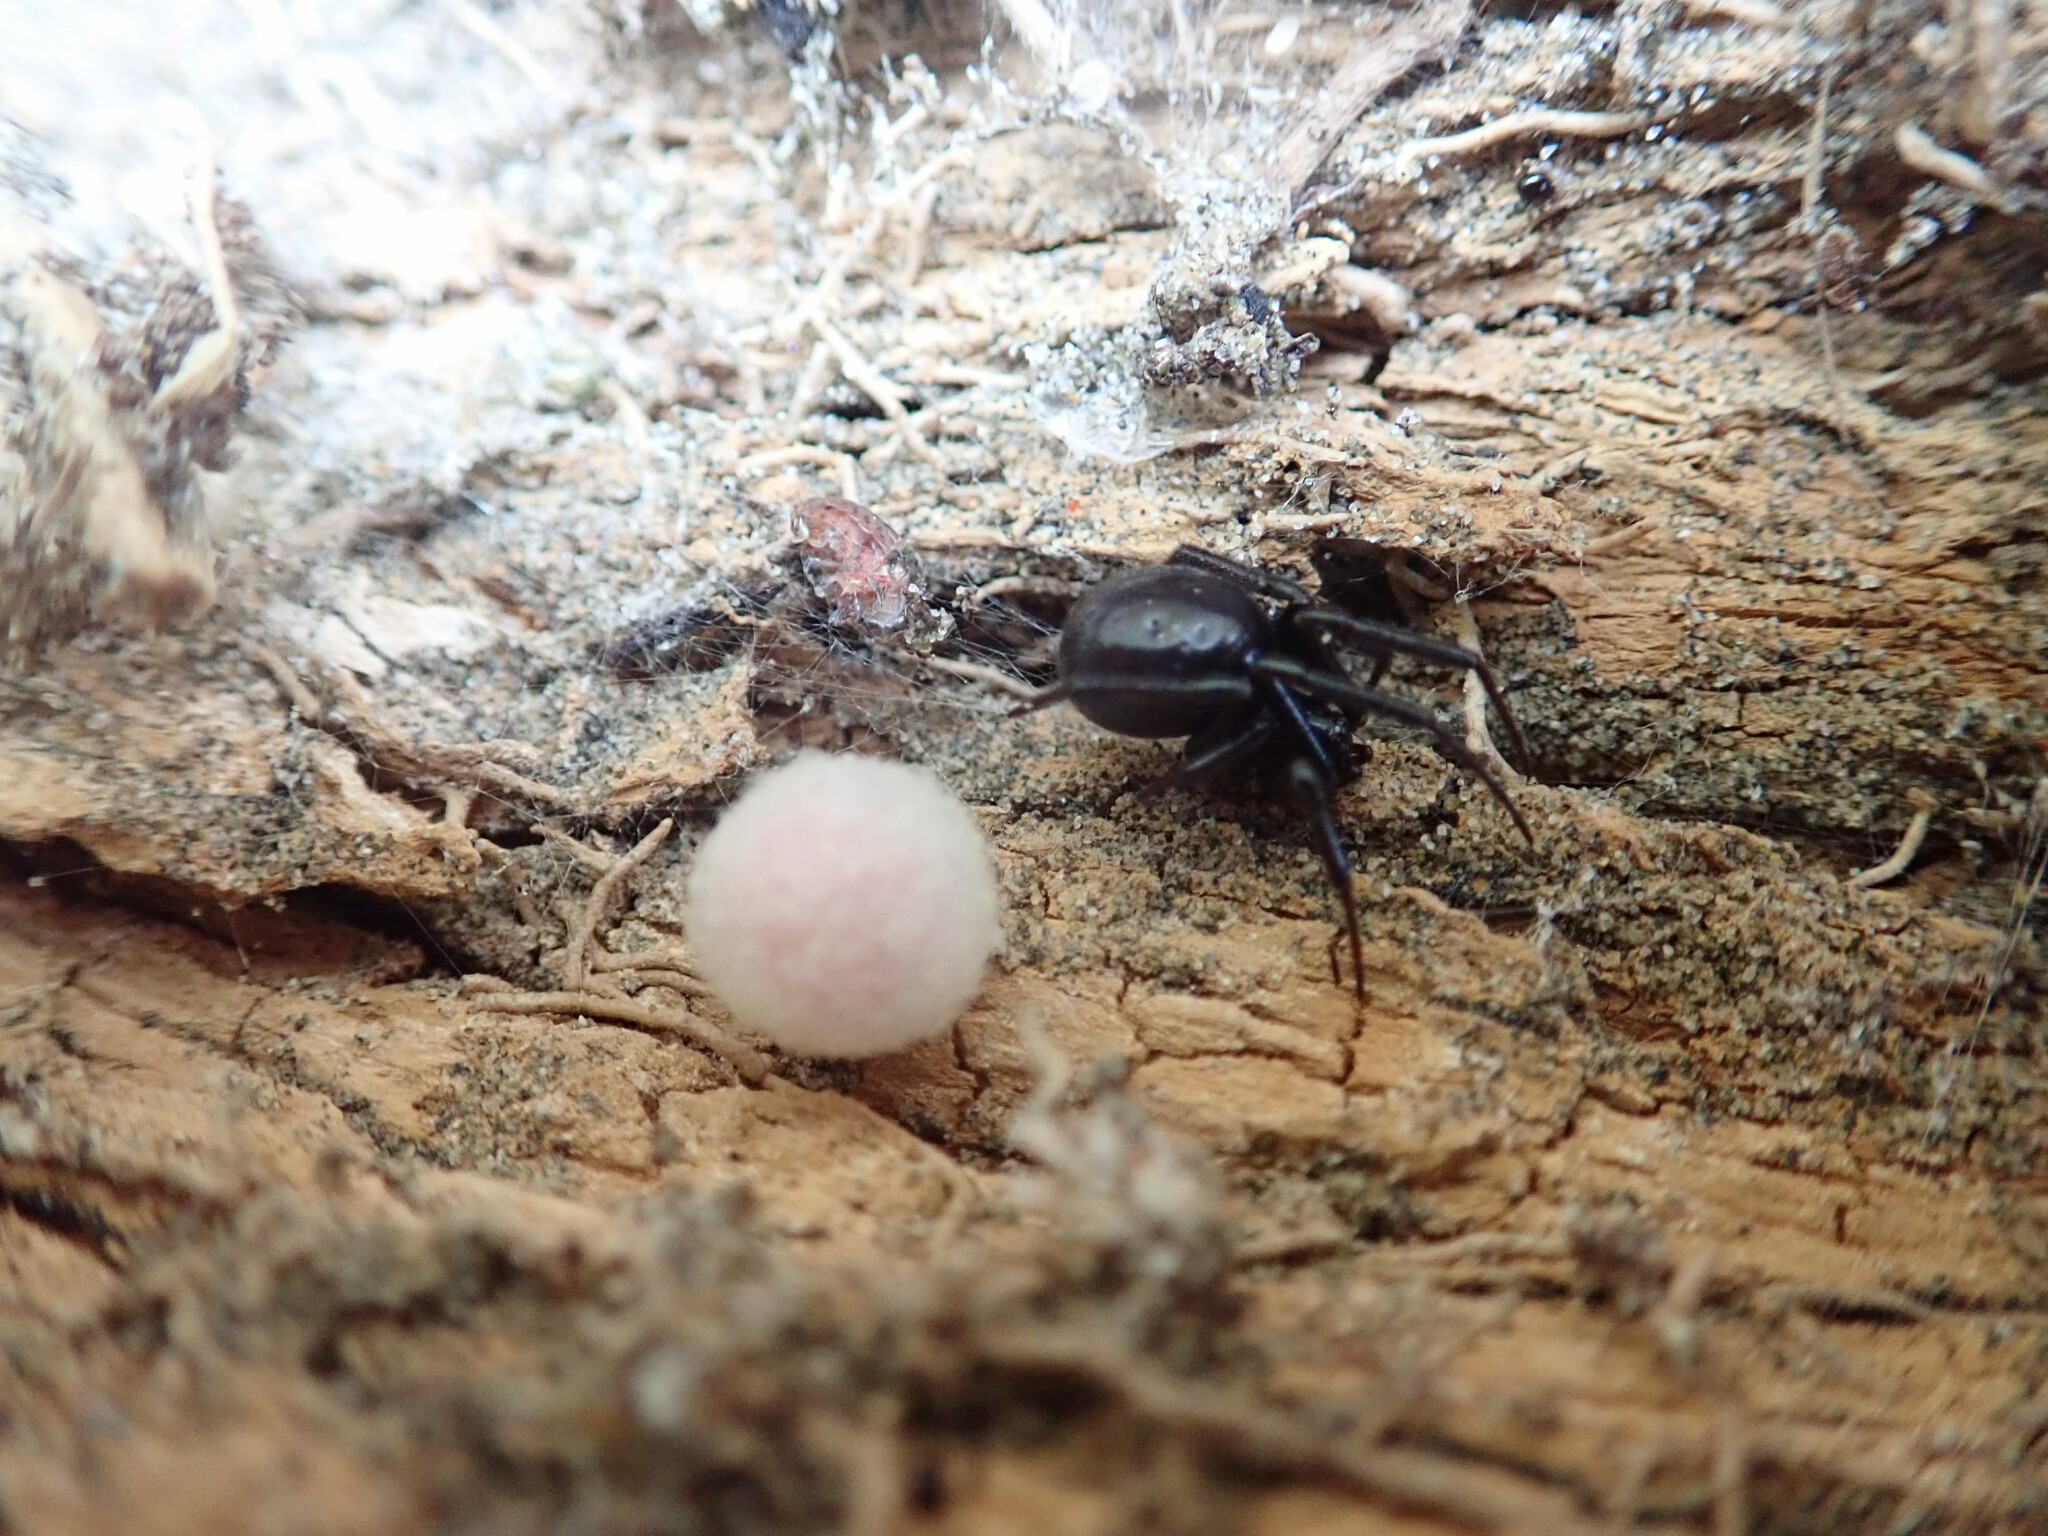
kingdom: Animalia
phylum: Arthropoda
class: Arachnida
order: Araneae
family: Theridiidae
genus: Steatoda
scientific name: Steatoda capensis
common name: Cobweb weaver
